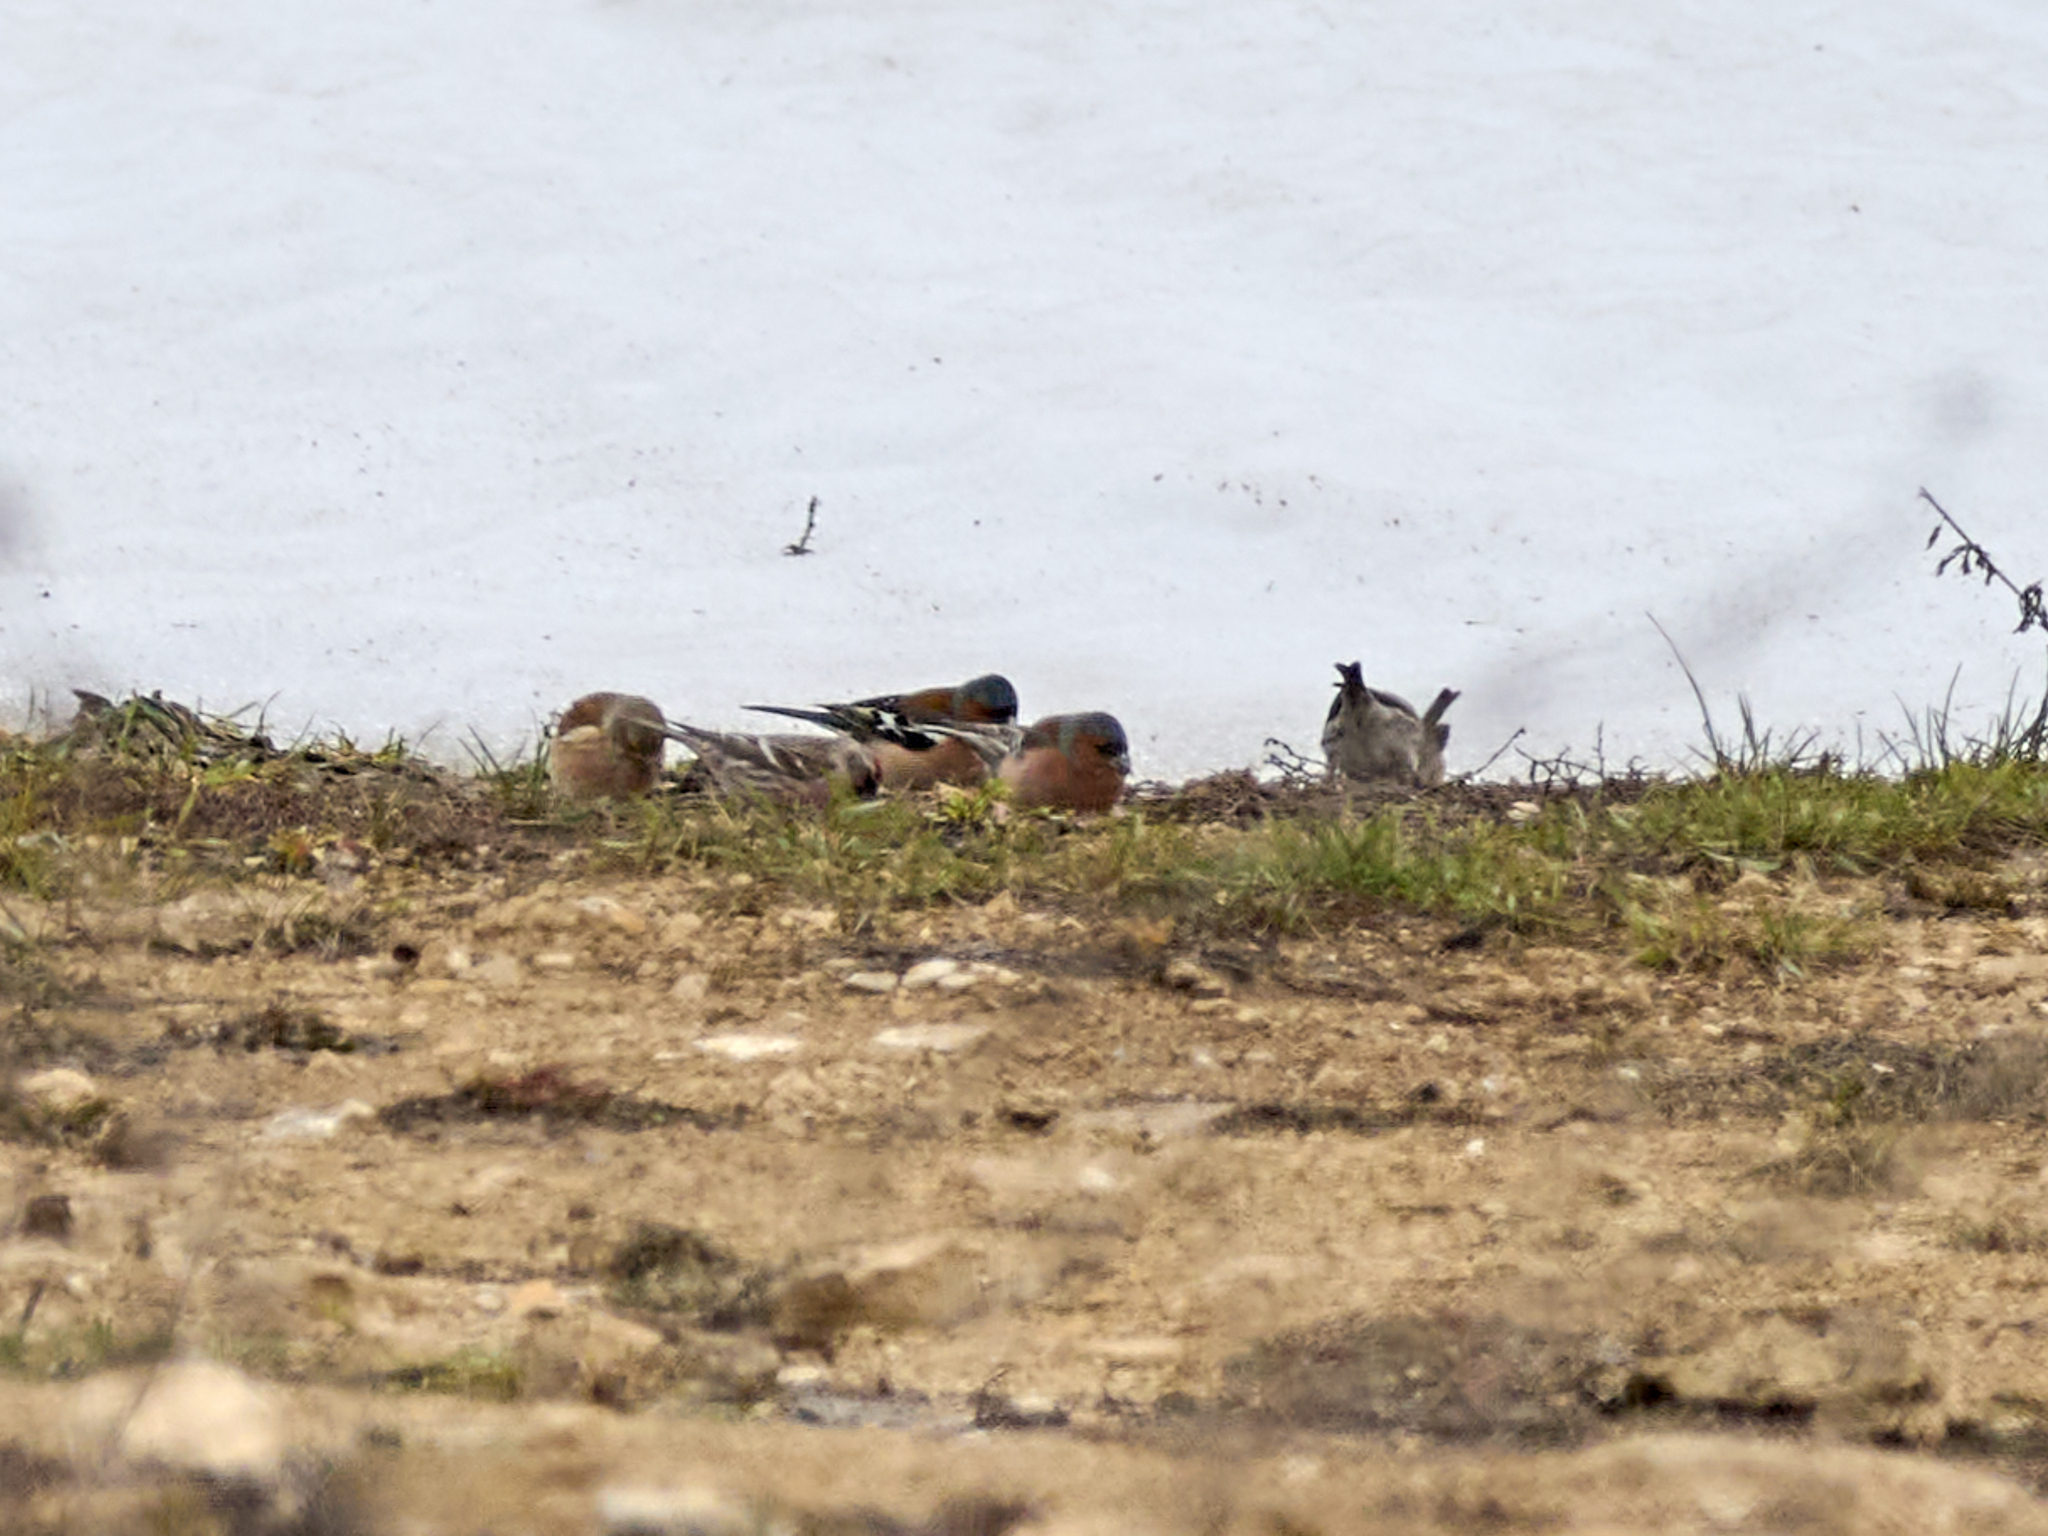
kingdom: Animalia
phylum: Chordata
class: Aves
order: Passeriformes
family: Fringillidae
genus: Fringilla
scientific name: Fringilla coelebs
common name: Common chaffinch
